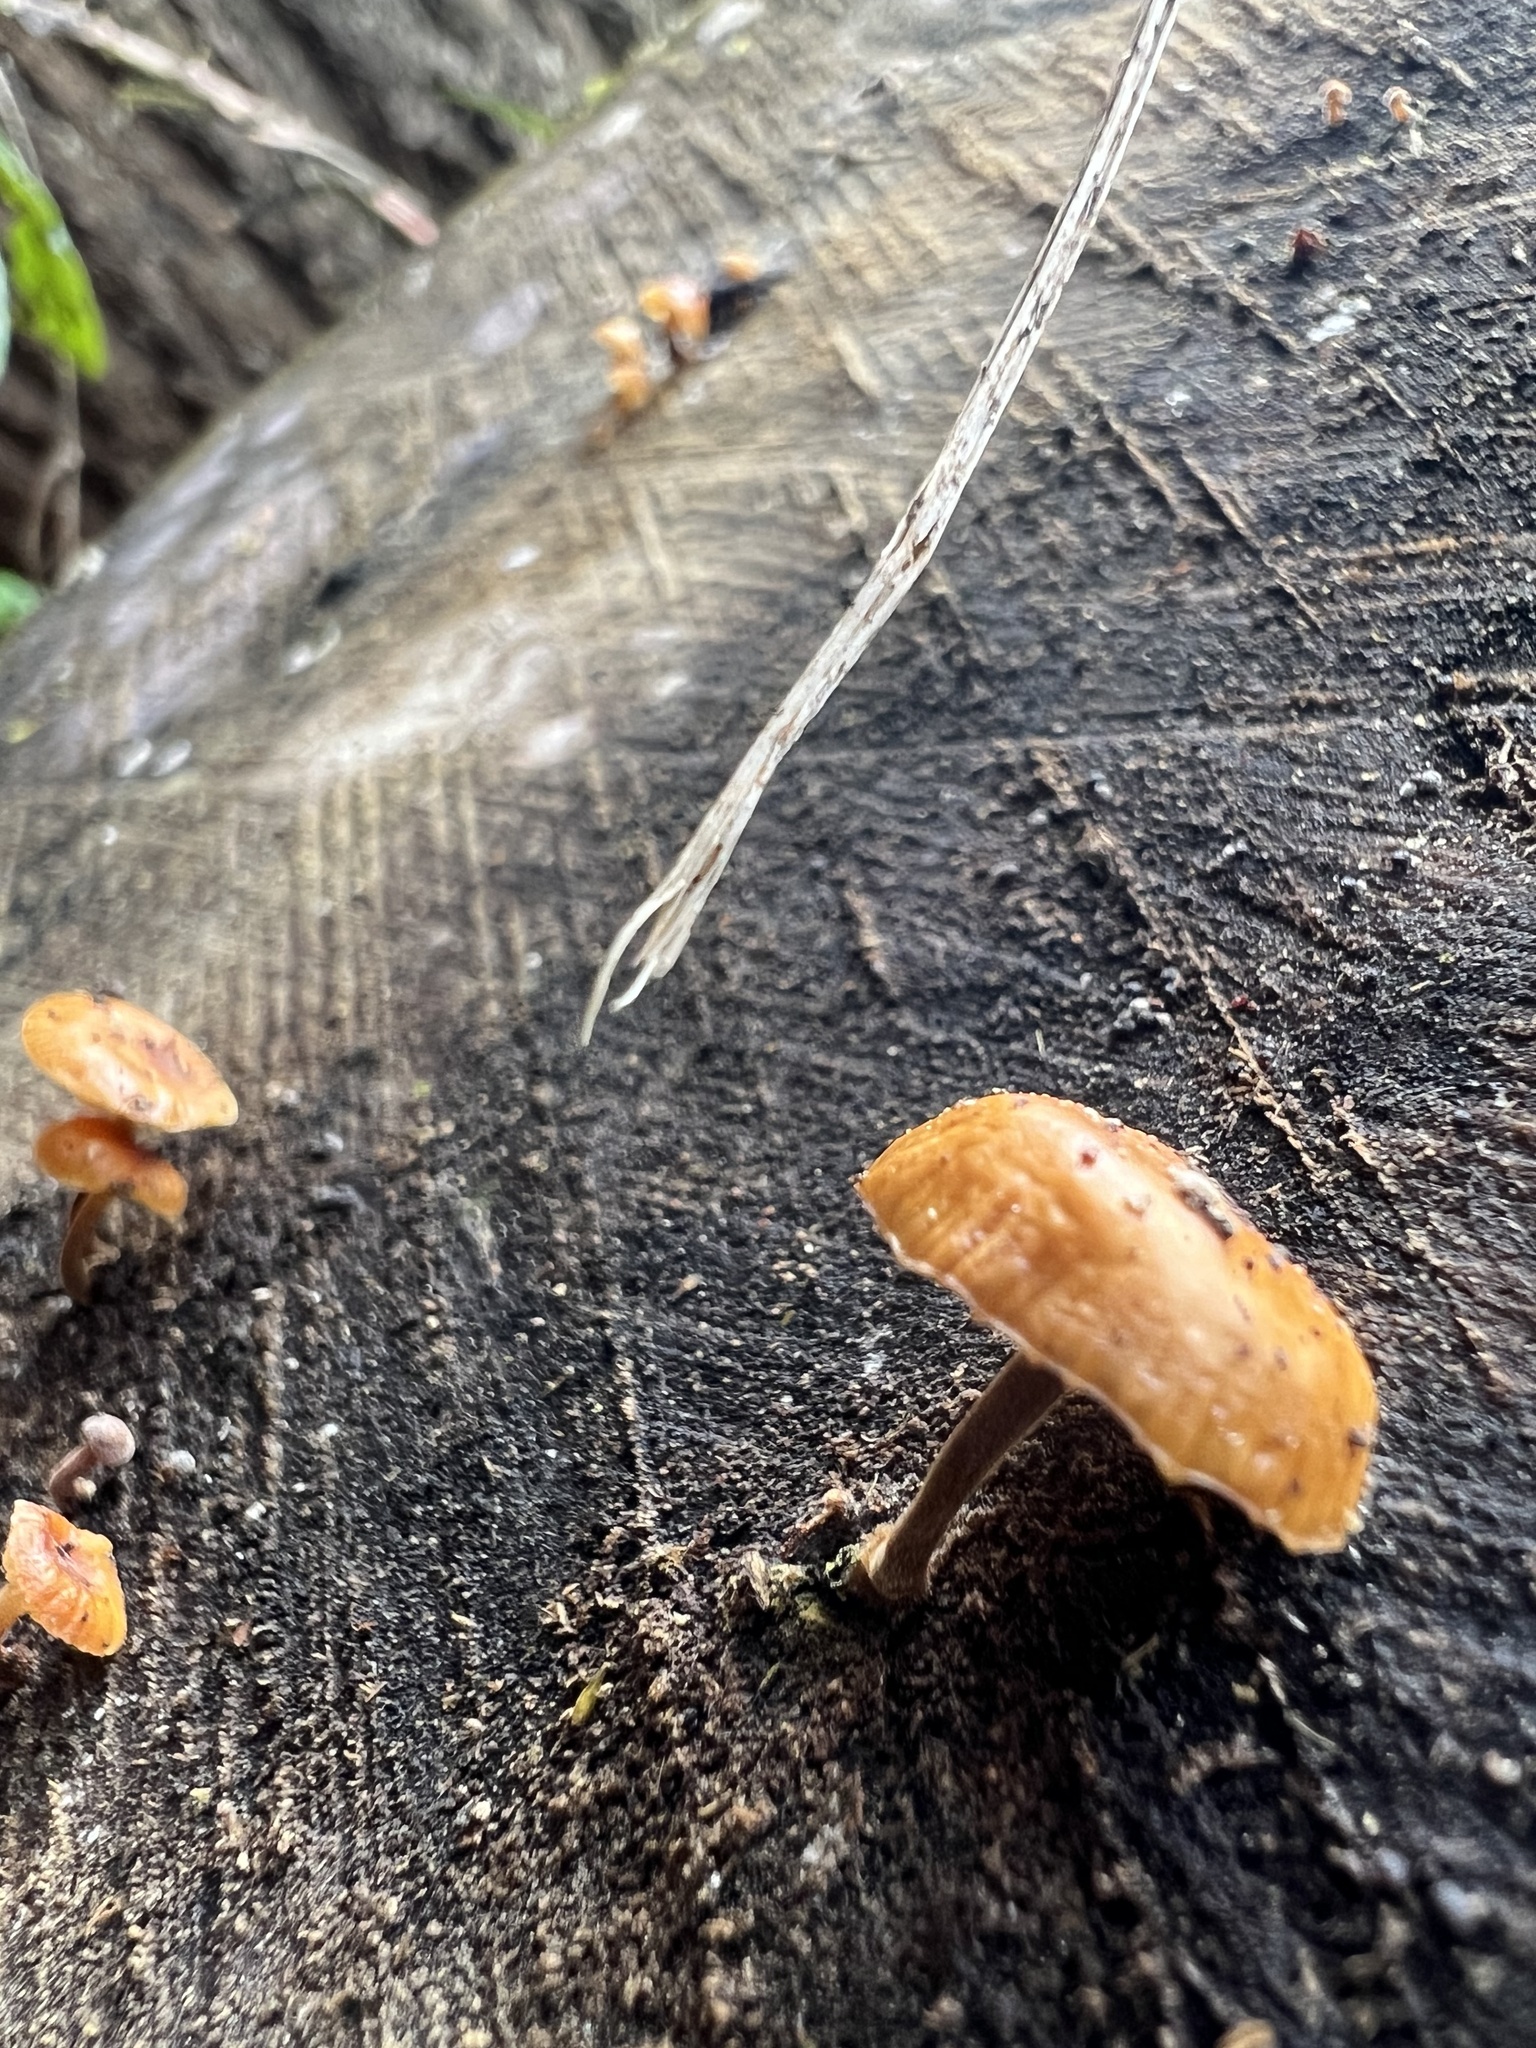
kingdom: Fungi
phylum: Basidiomycota
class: Agaricomycetes
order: Agaricales
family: Physalacriaceae
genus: Flammulina
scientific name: Flammulina
